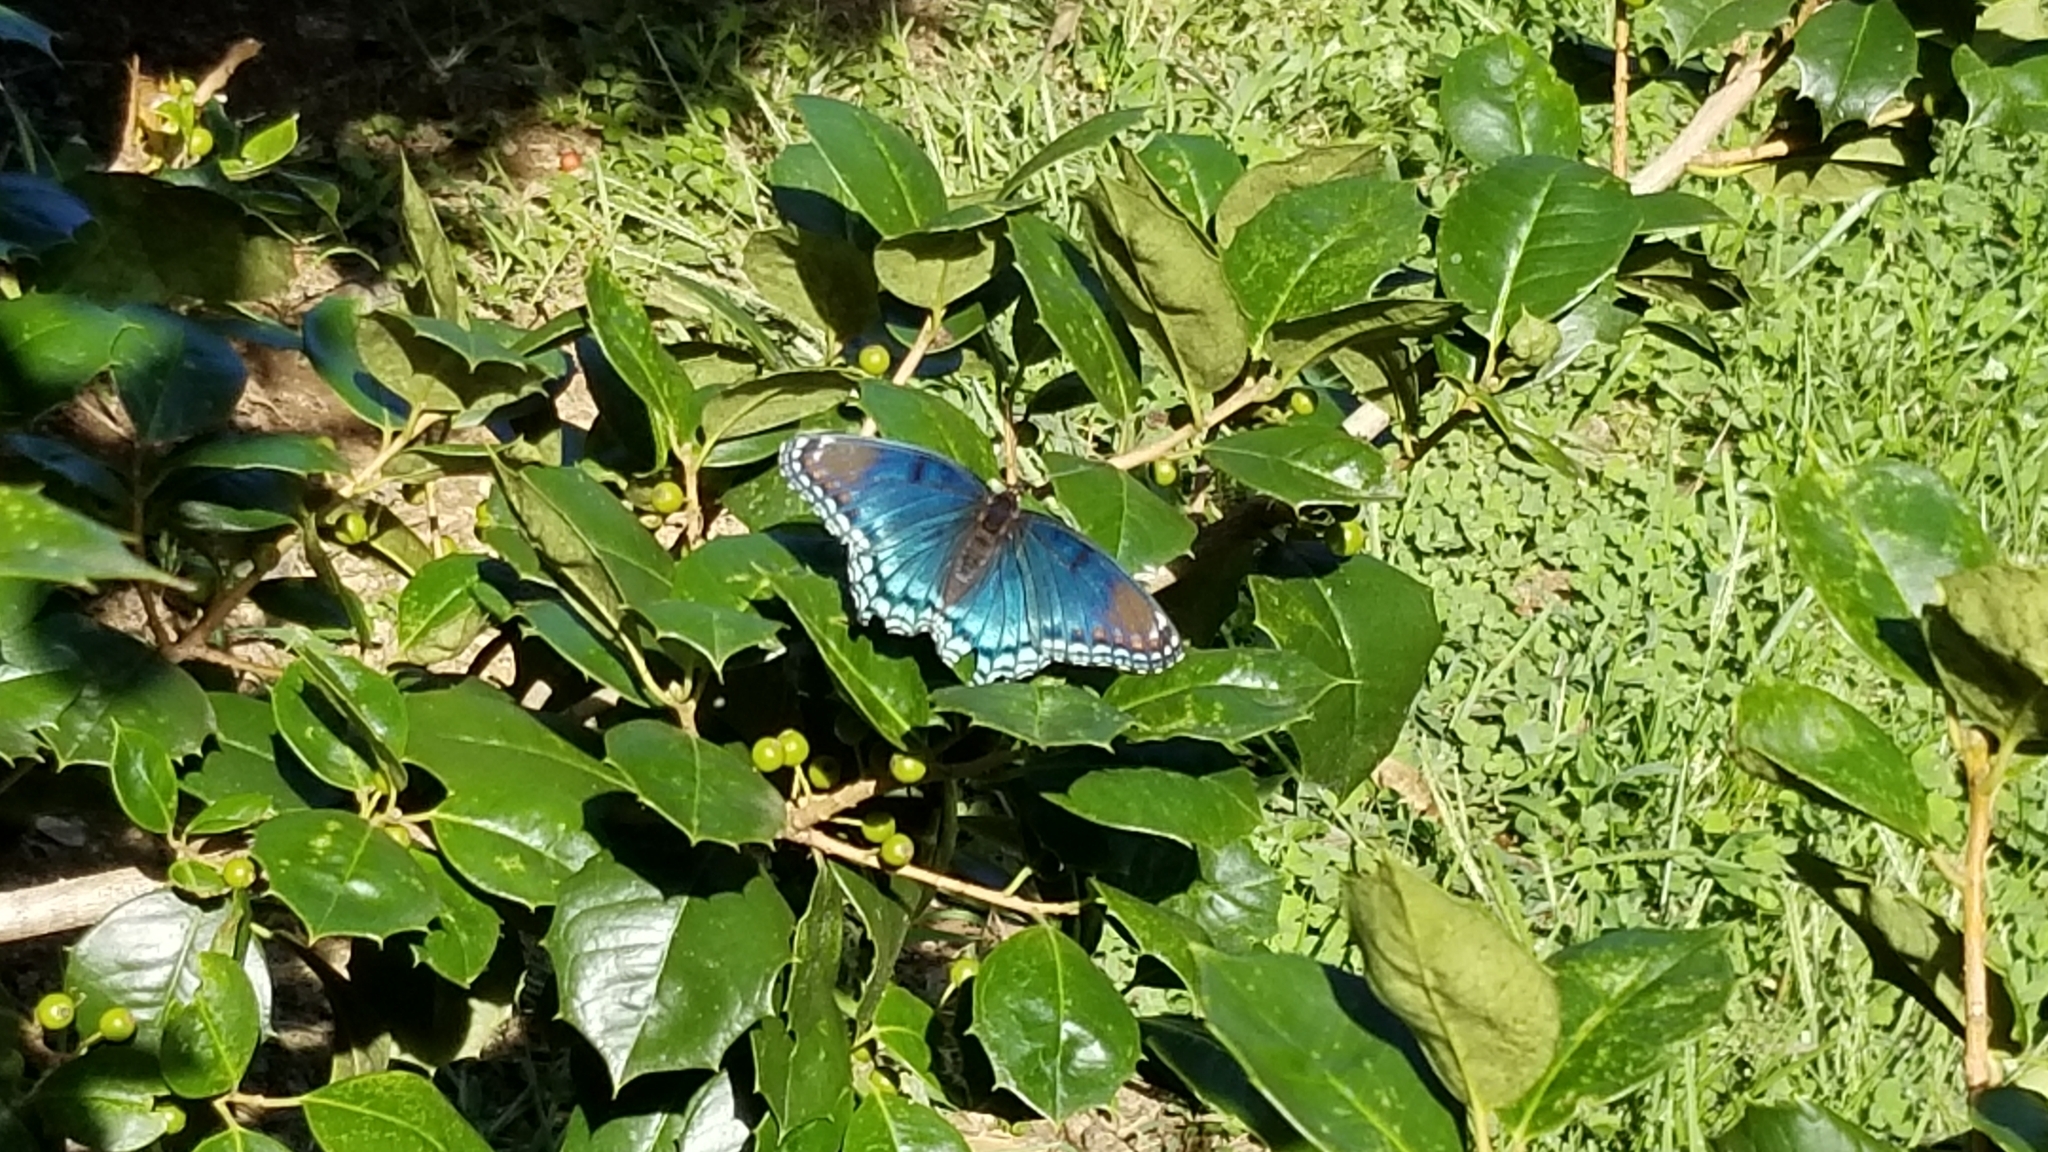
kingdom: Animalia
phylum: Arthropoda
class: Insecta
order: Lepidoptera
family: Nymphalidae
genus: Limenitis
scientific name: Limenitis astyanax
